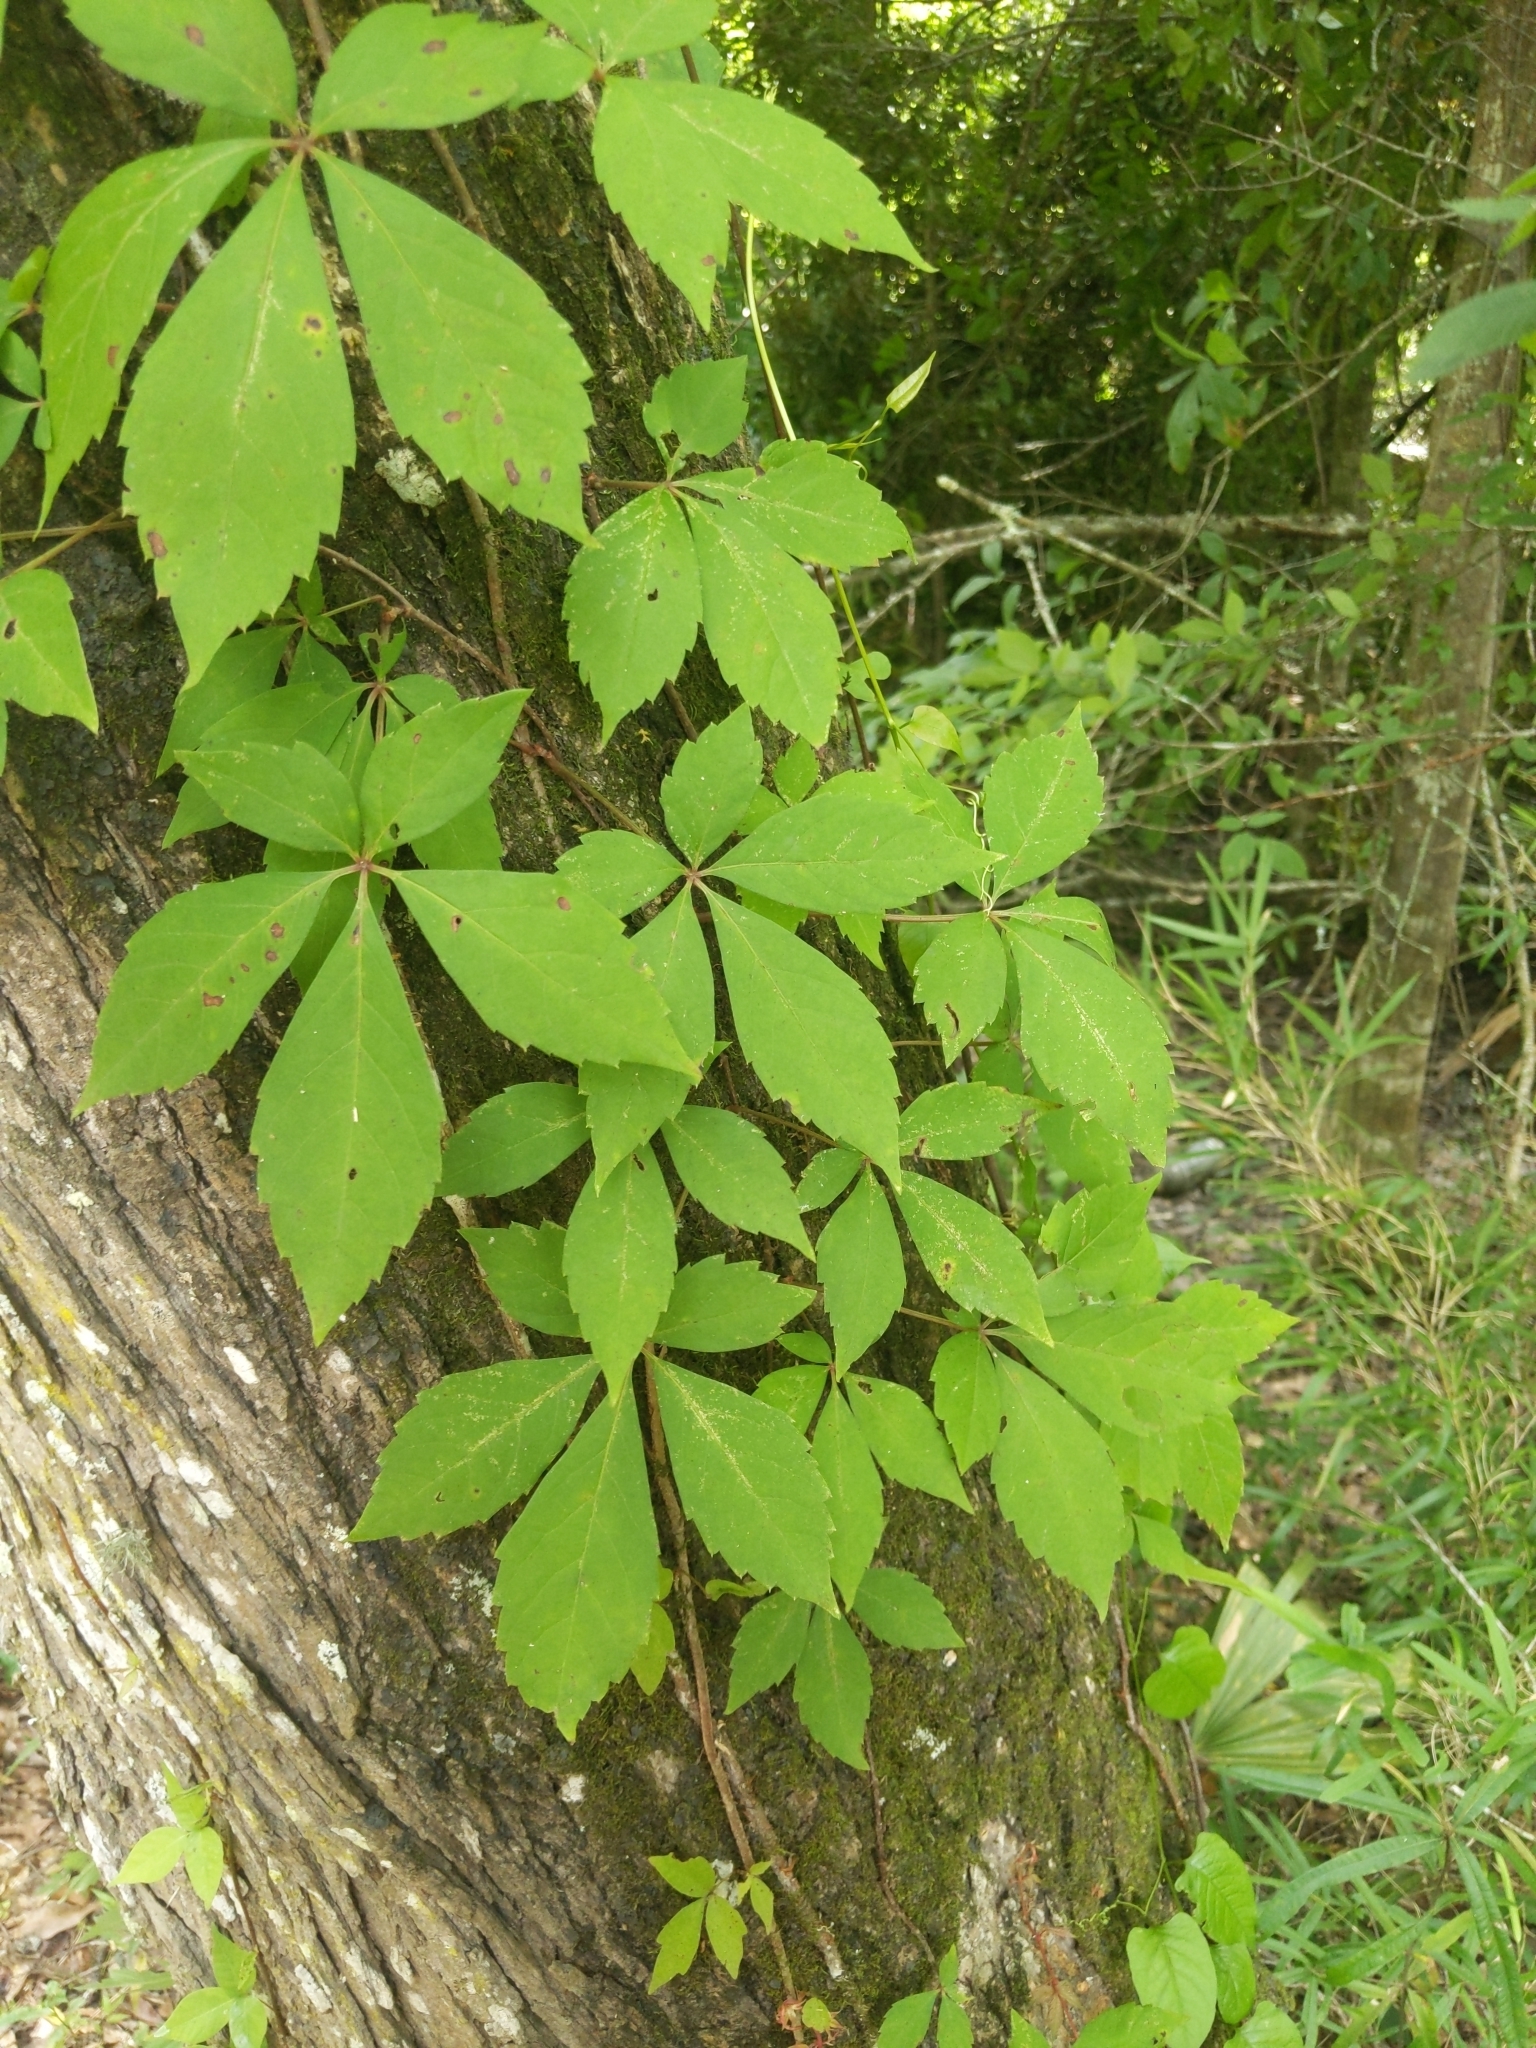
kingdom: Plantae
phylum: Tracheophyta
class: Magnoliopsida
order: Vitales
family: Vitaceae
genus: Parthenocissus
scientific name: Parthenocissus quinquefolia
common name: Virginia-creeper
